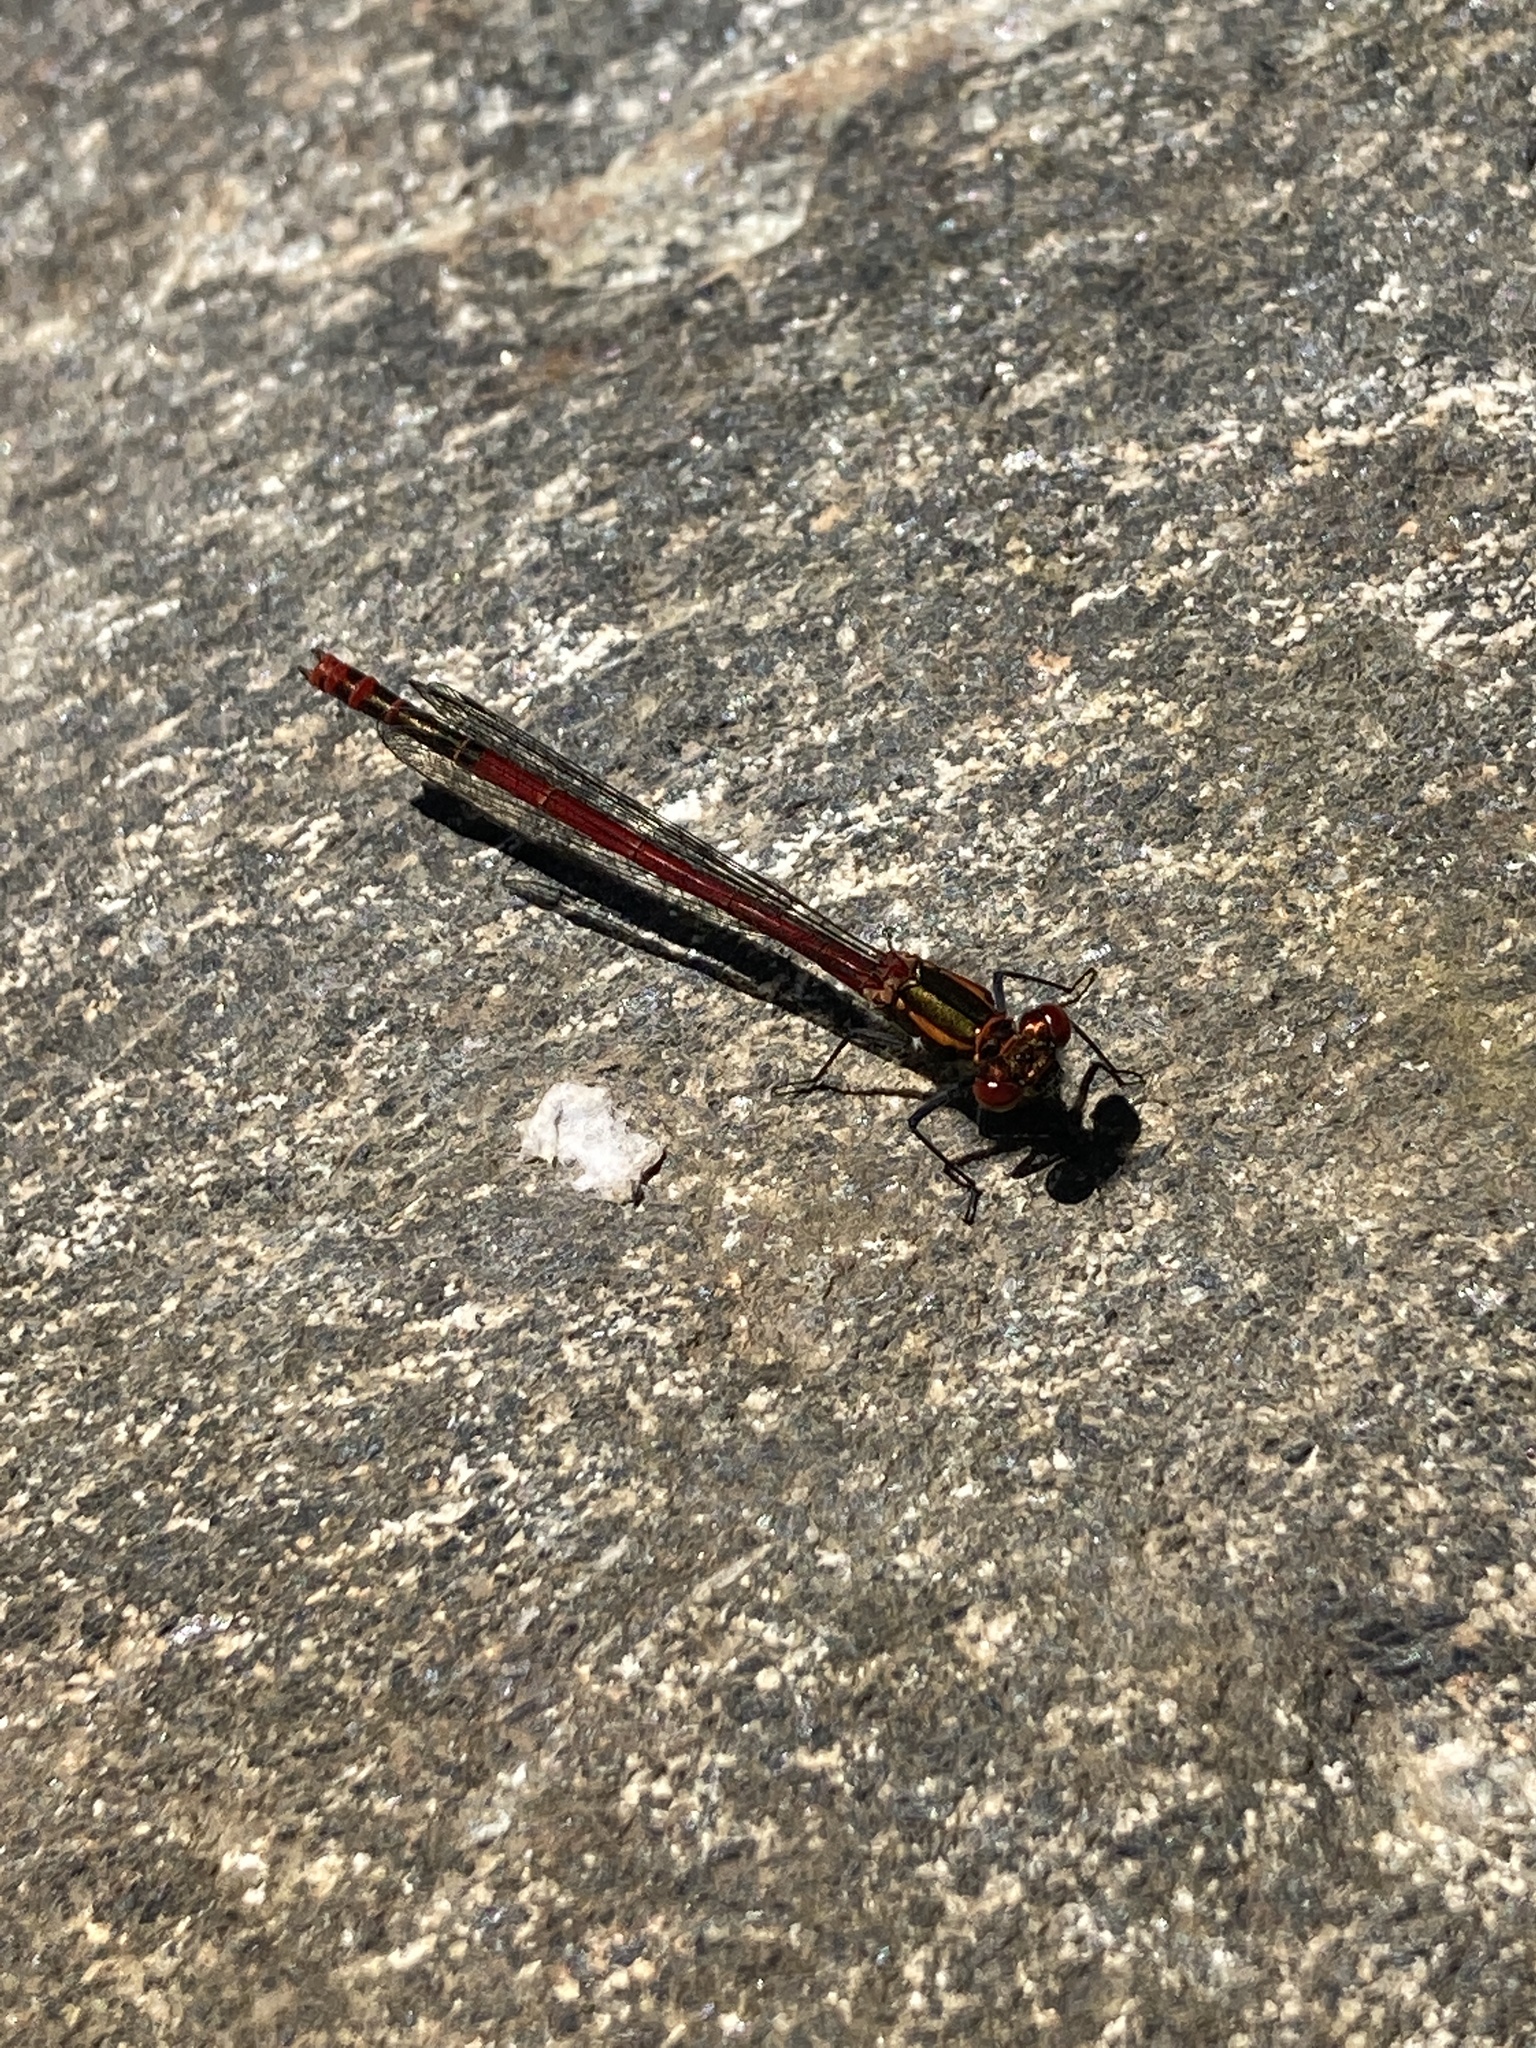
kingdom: Animalia
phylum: Arthropoda
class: Insecta
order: Odonata
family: Coenagrionidae
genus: Pyrrhosoma
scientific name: Pyrrhosoma nymphula
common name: Large red damsel
